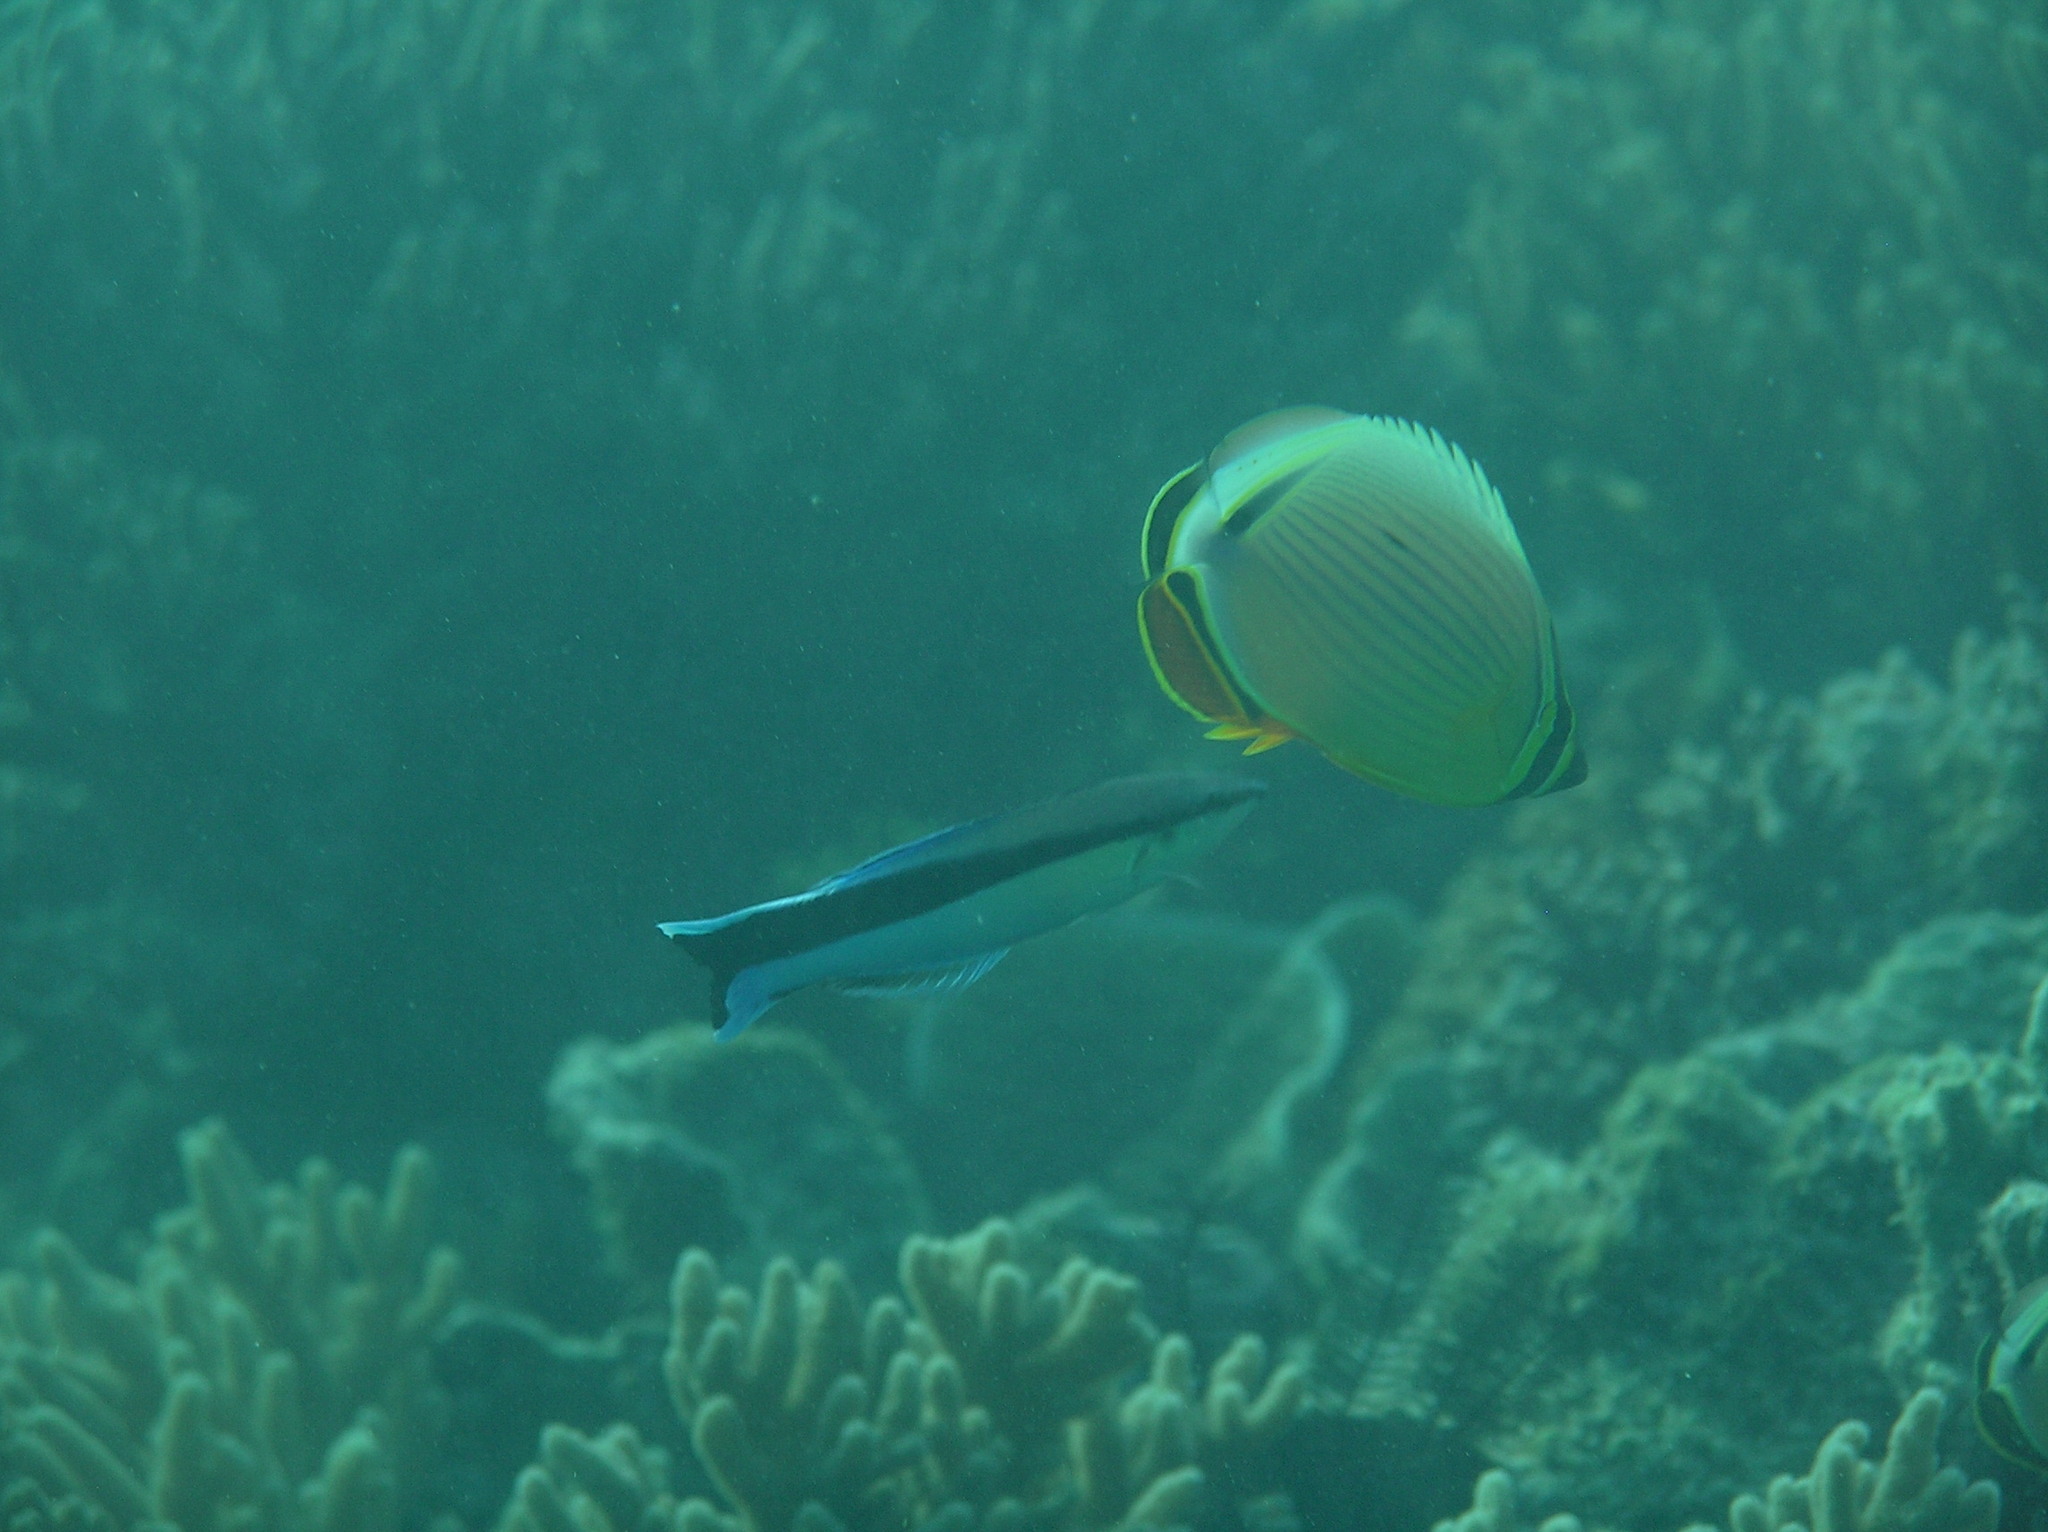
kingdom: Animalia
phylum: Chordata
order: Perciformes
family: Labridae
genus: Labroides
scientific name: Labroides dimidiatus
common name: Blue diesel wrasse
